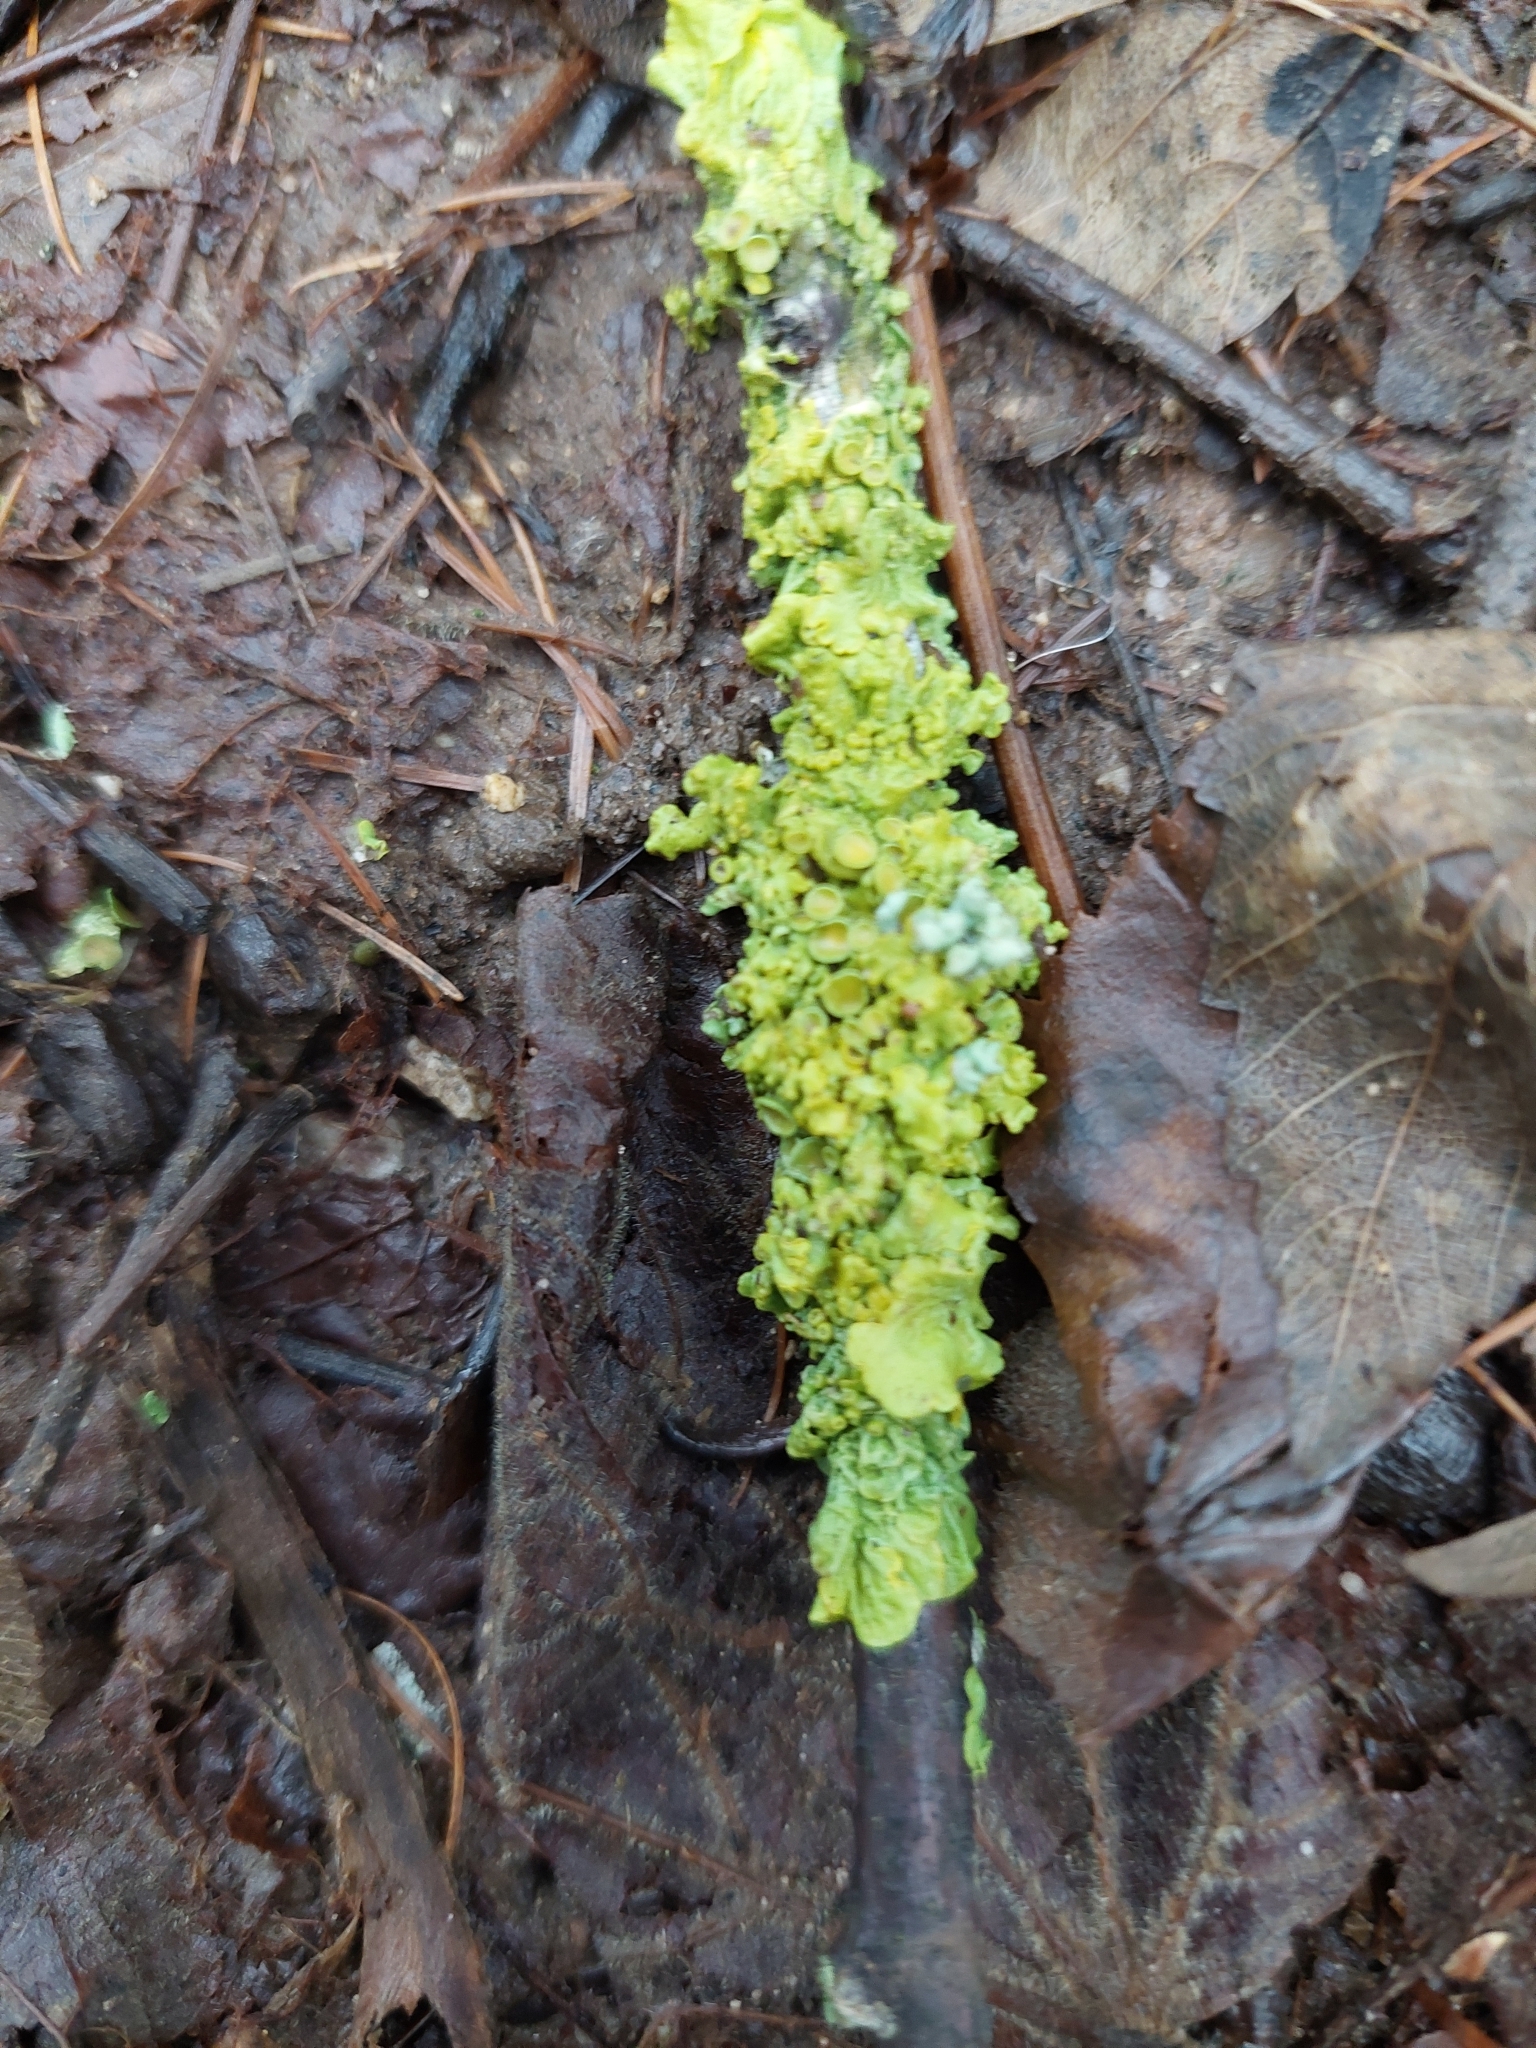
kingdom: Fungi
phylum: Ascomycota
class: Lecanoromycetes
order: Teloschistales
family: Teloschistaceae
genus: Xanthoria
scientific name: Xanthoria parietina
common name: Common orange lichen
